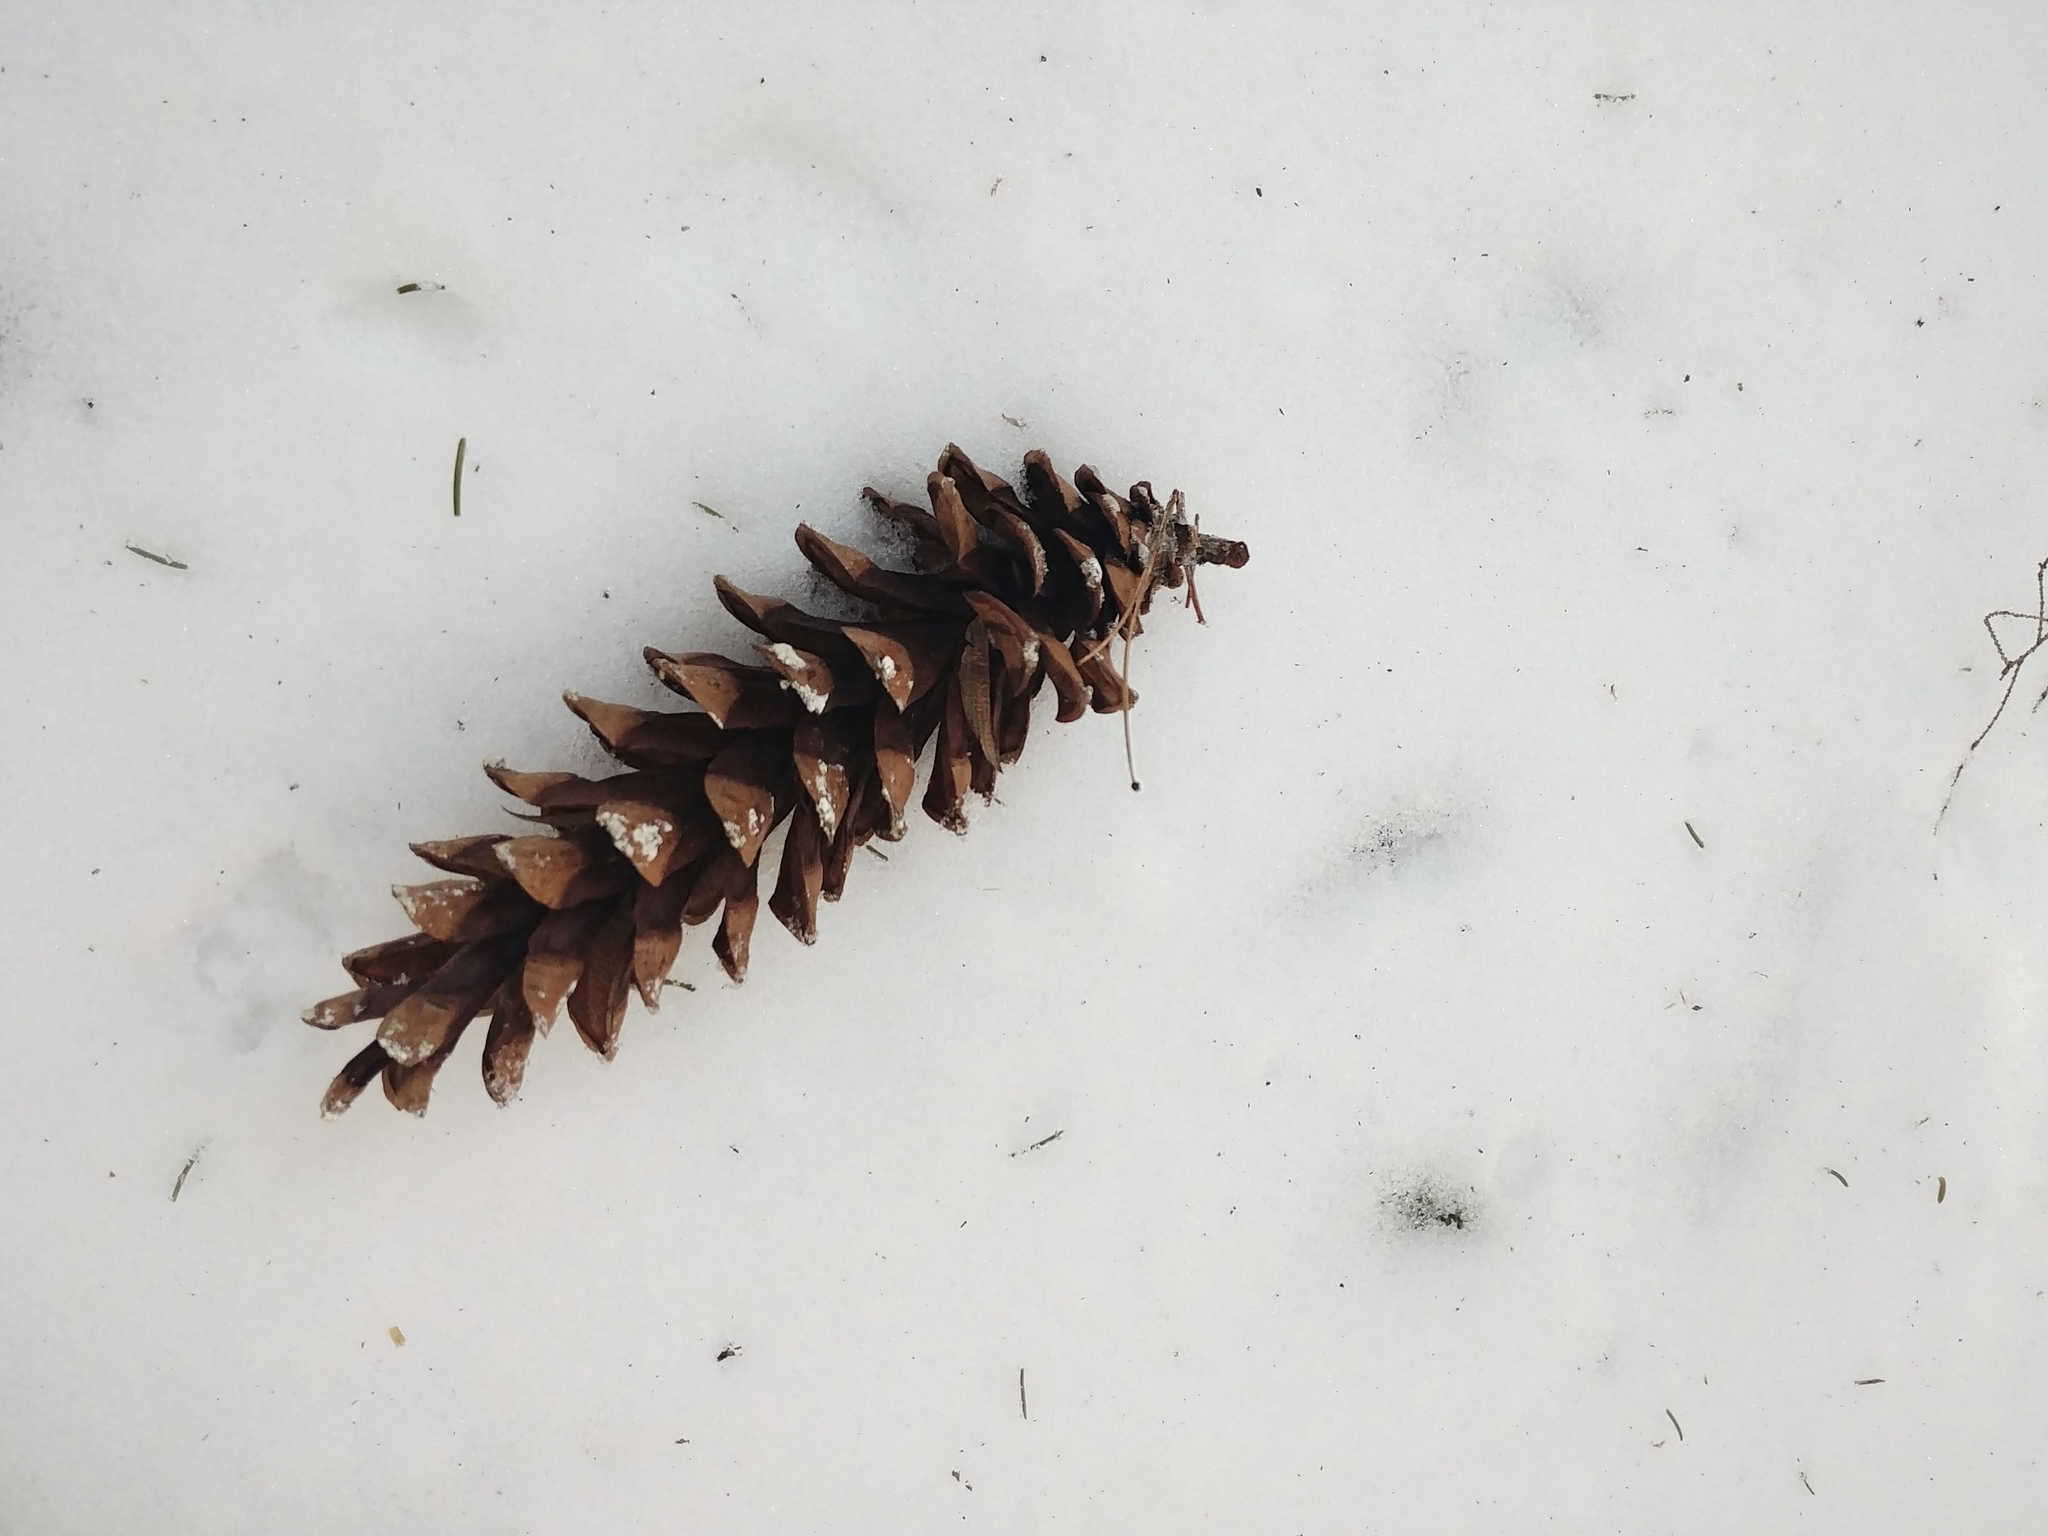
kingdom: Plantae
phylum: Tracheophyta
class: Pinopsida
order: Pinales
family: Pinaceae
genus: Pinus
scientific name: Pinus strobus
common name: Weymouth pine
